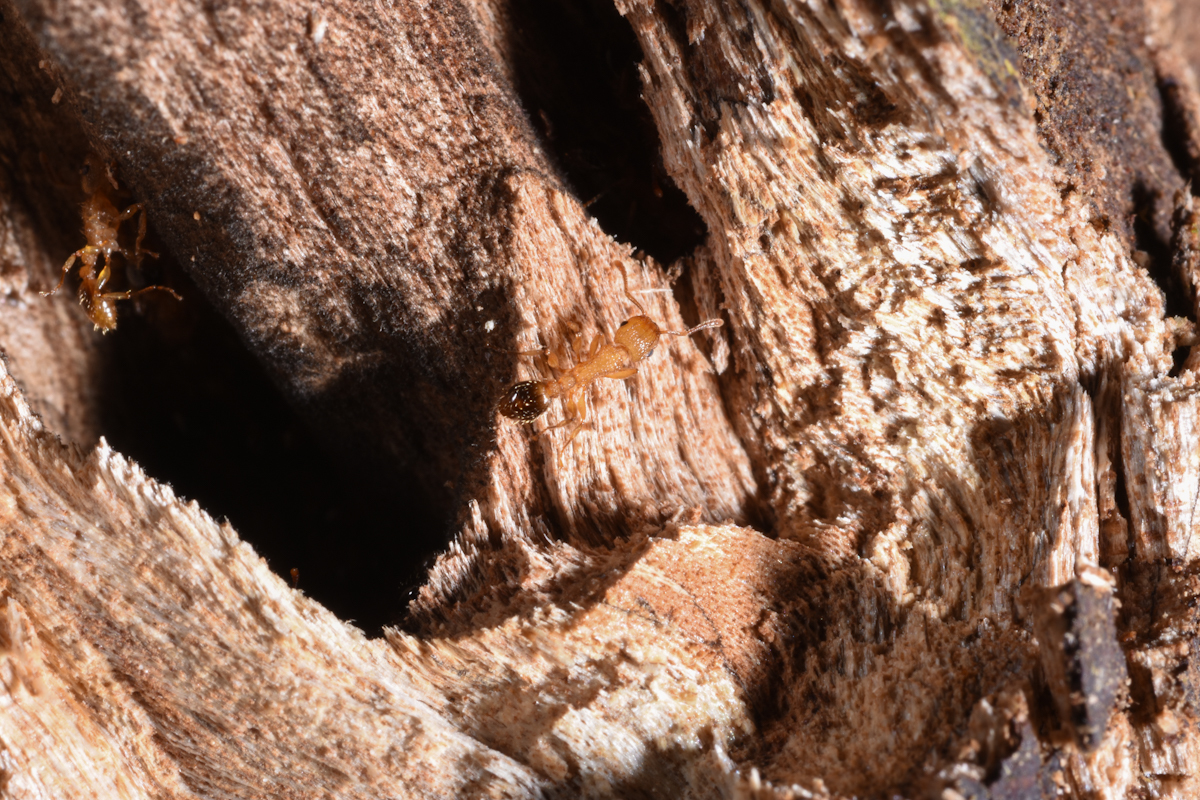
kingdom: Animalia
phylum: Arthropoda
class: Insecta
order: Hymenoptera
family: Formicidae
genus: Tetramorium
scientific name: Tetramorium bicarinatum
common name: Guinea ant
